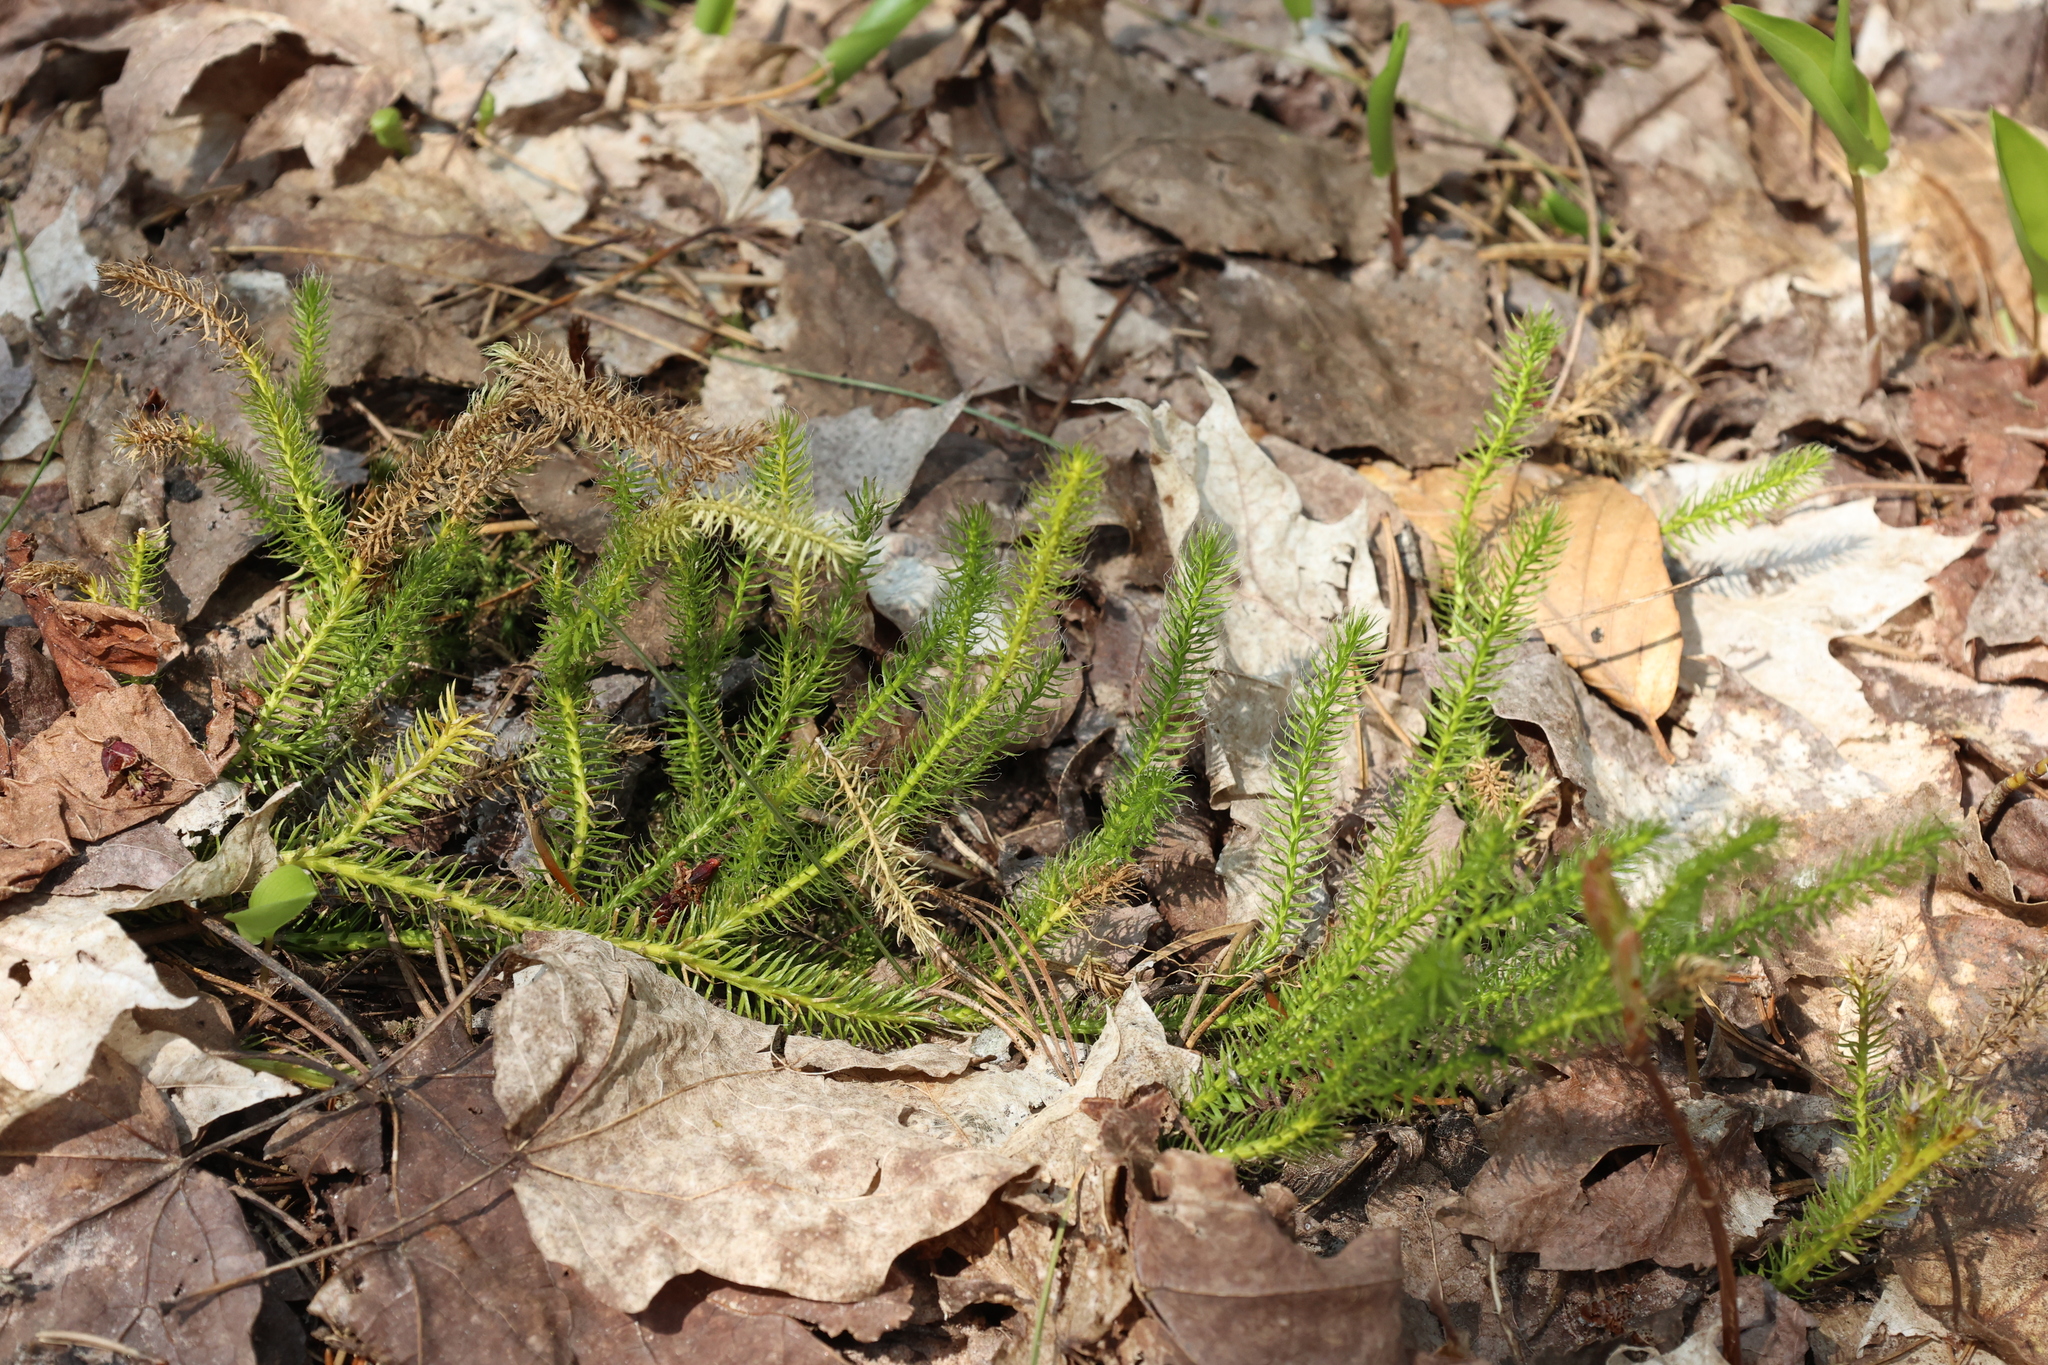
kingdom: Plantae
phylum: Tracheophyta
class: Lycopodiopsida
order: Lycopodiales
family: Lycopodiaceae
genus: Spinulum
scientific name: Spinulum annotinum
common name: Interrupted club-moss
